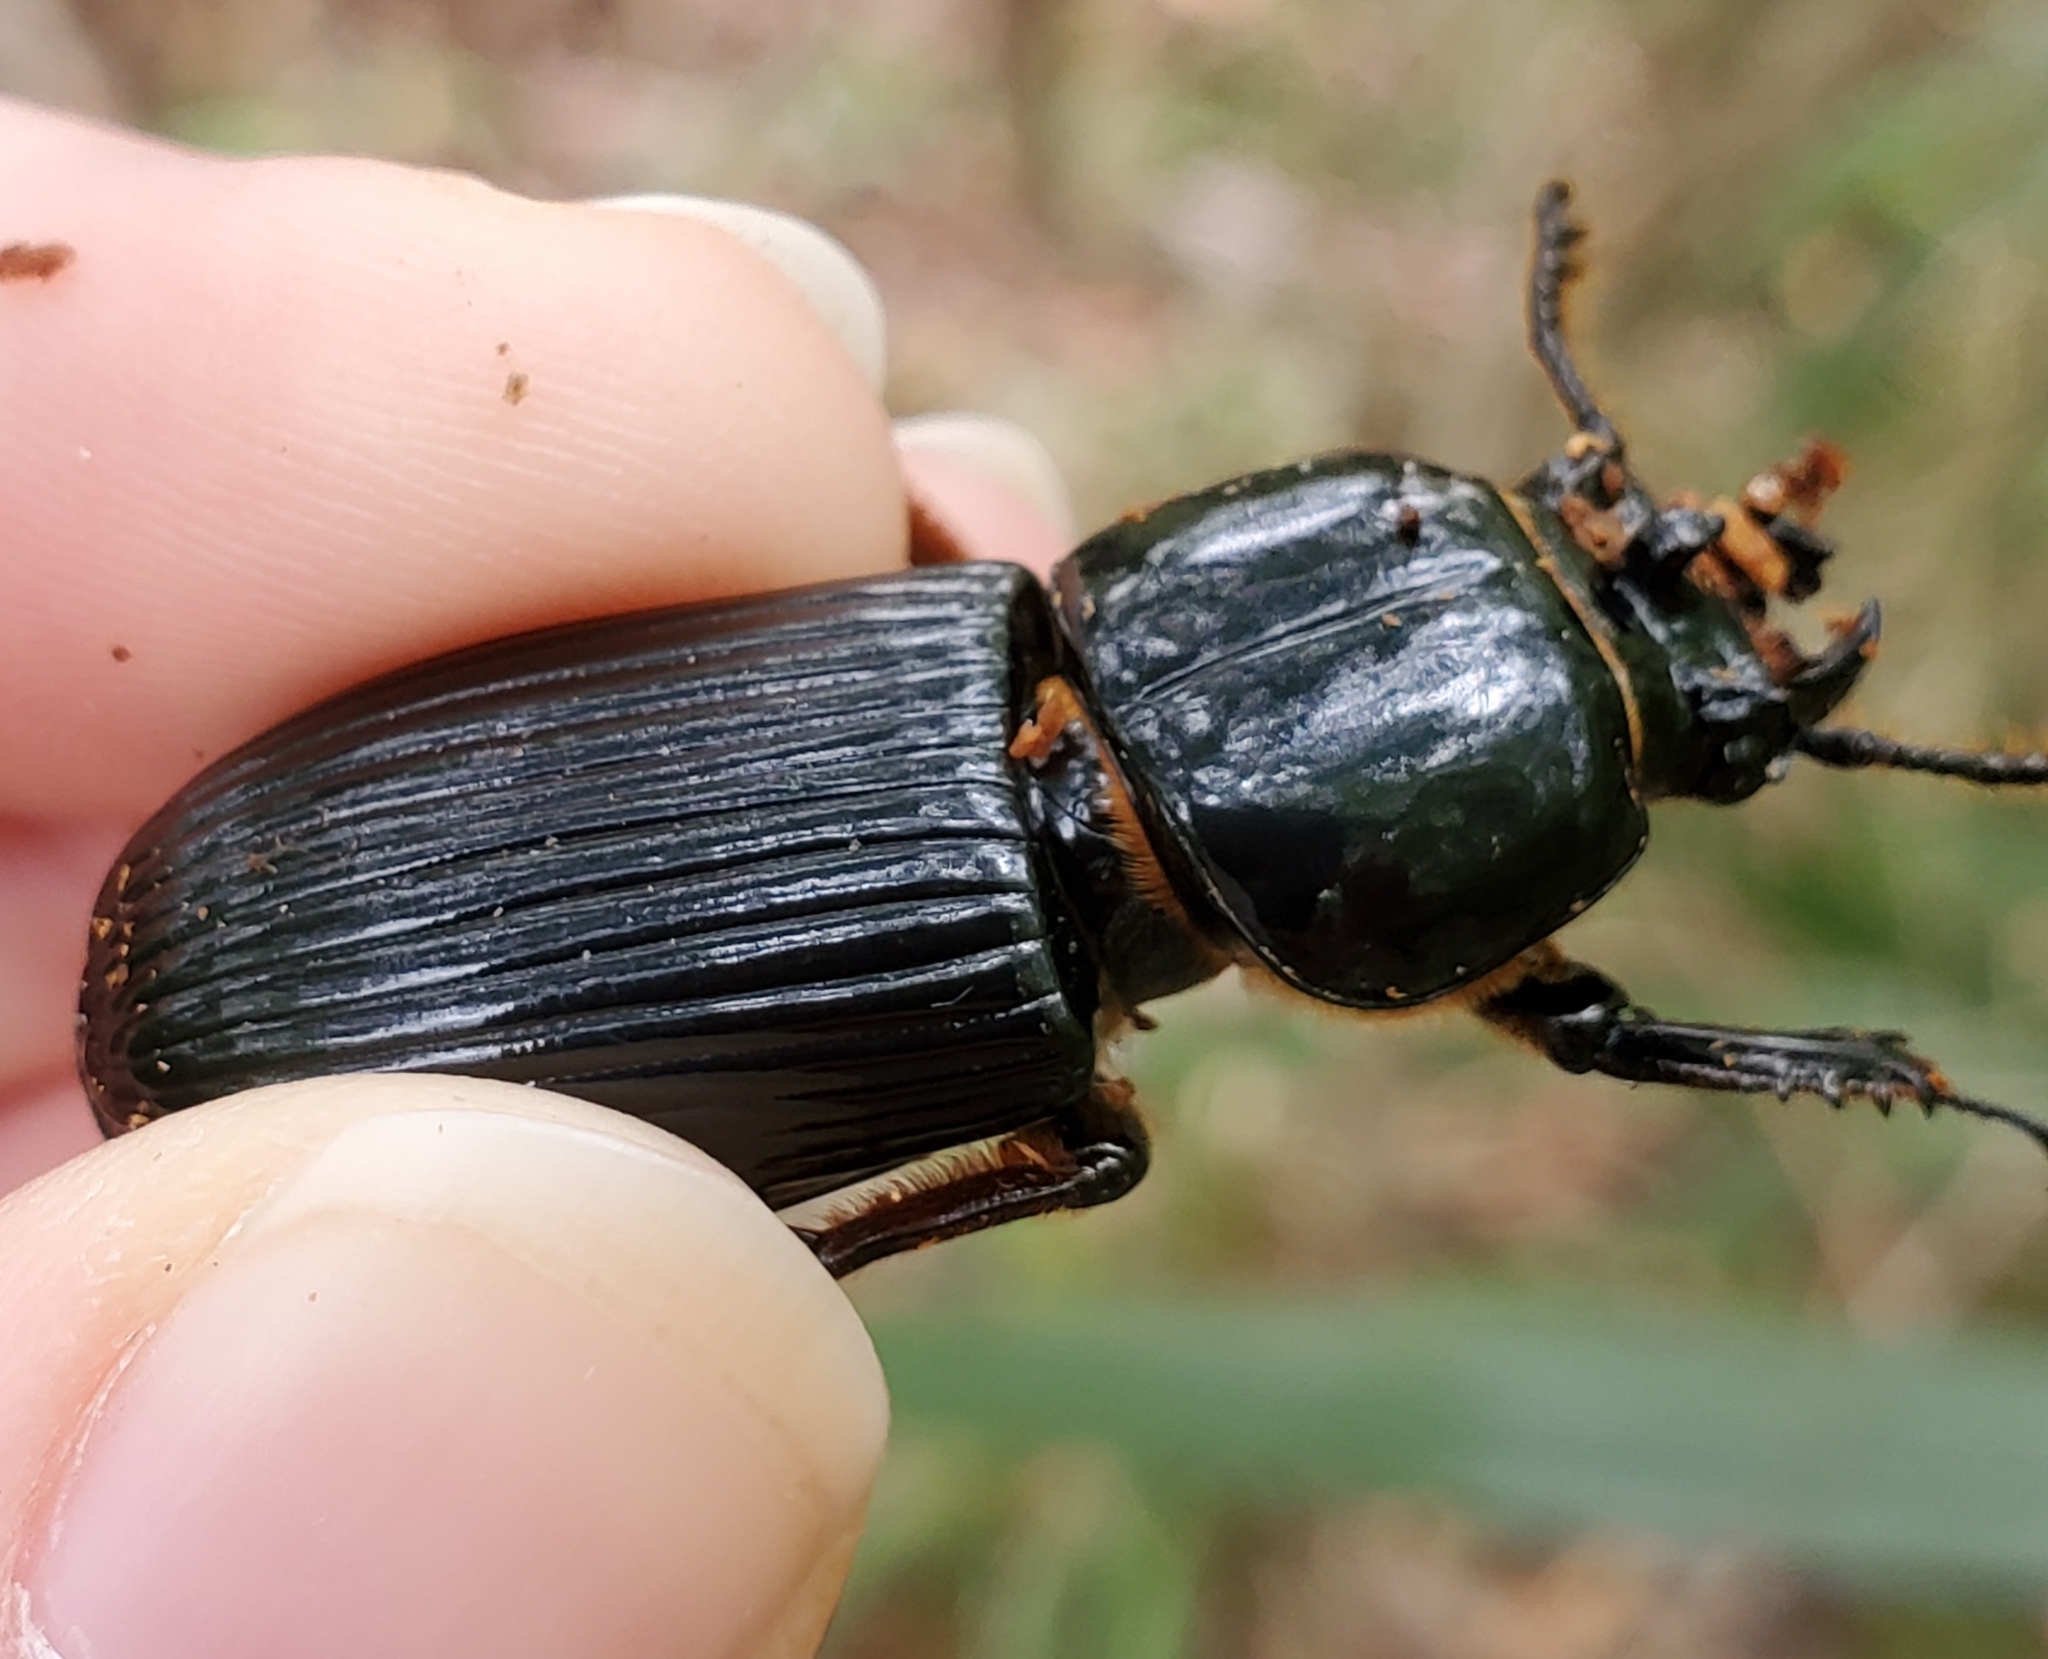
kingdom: Animalia
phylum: Arthropoda
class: Insecta
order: Coleoptera
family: Passalidae
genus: Odontotaenius
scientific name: Odontotaenius disjunctus
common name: Patent leather beetle
